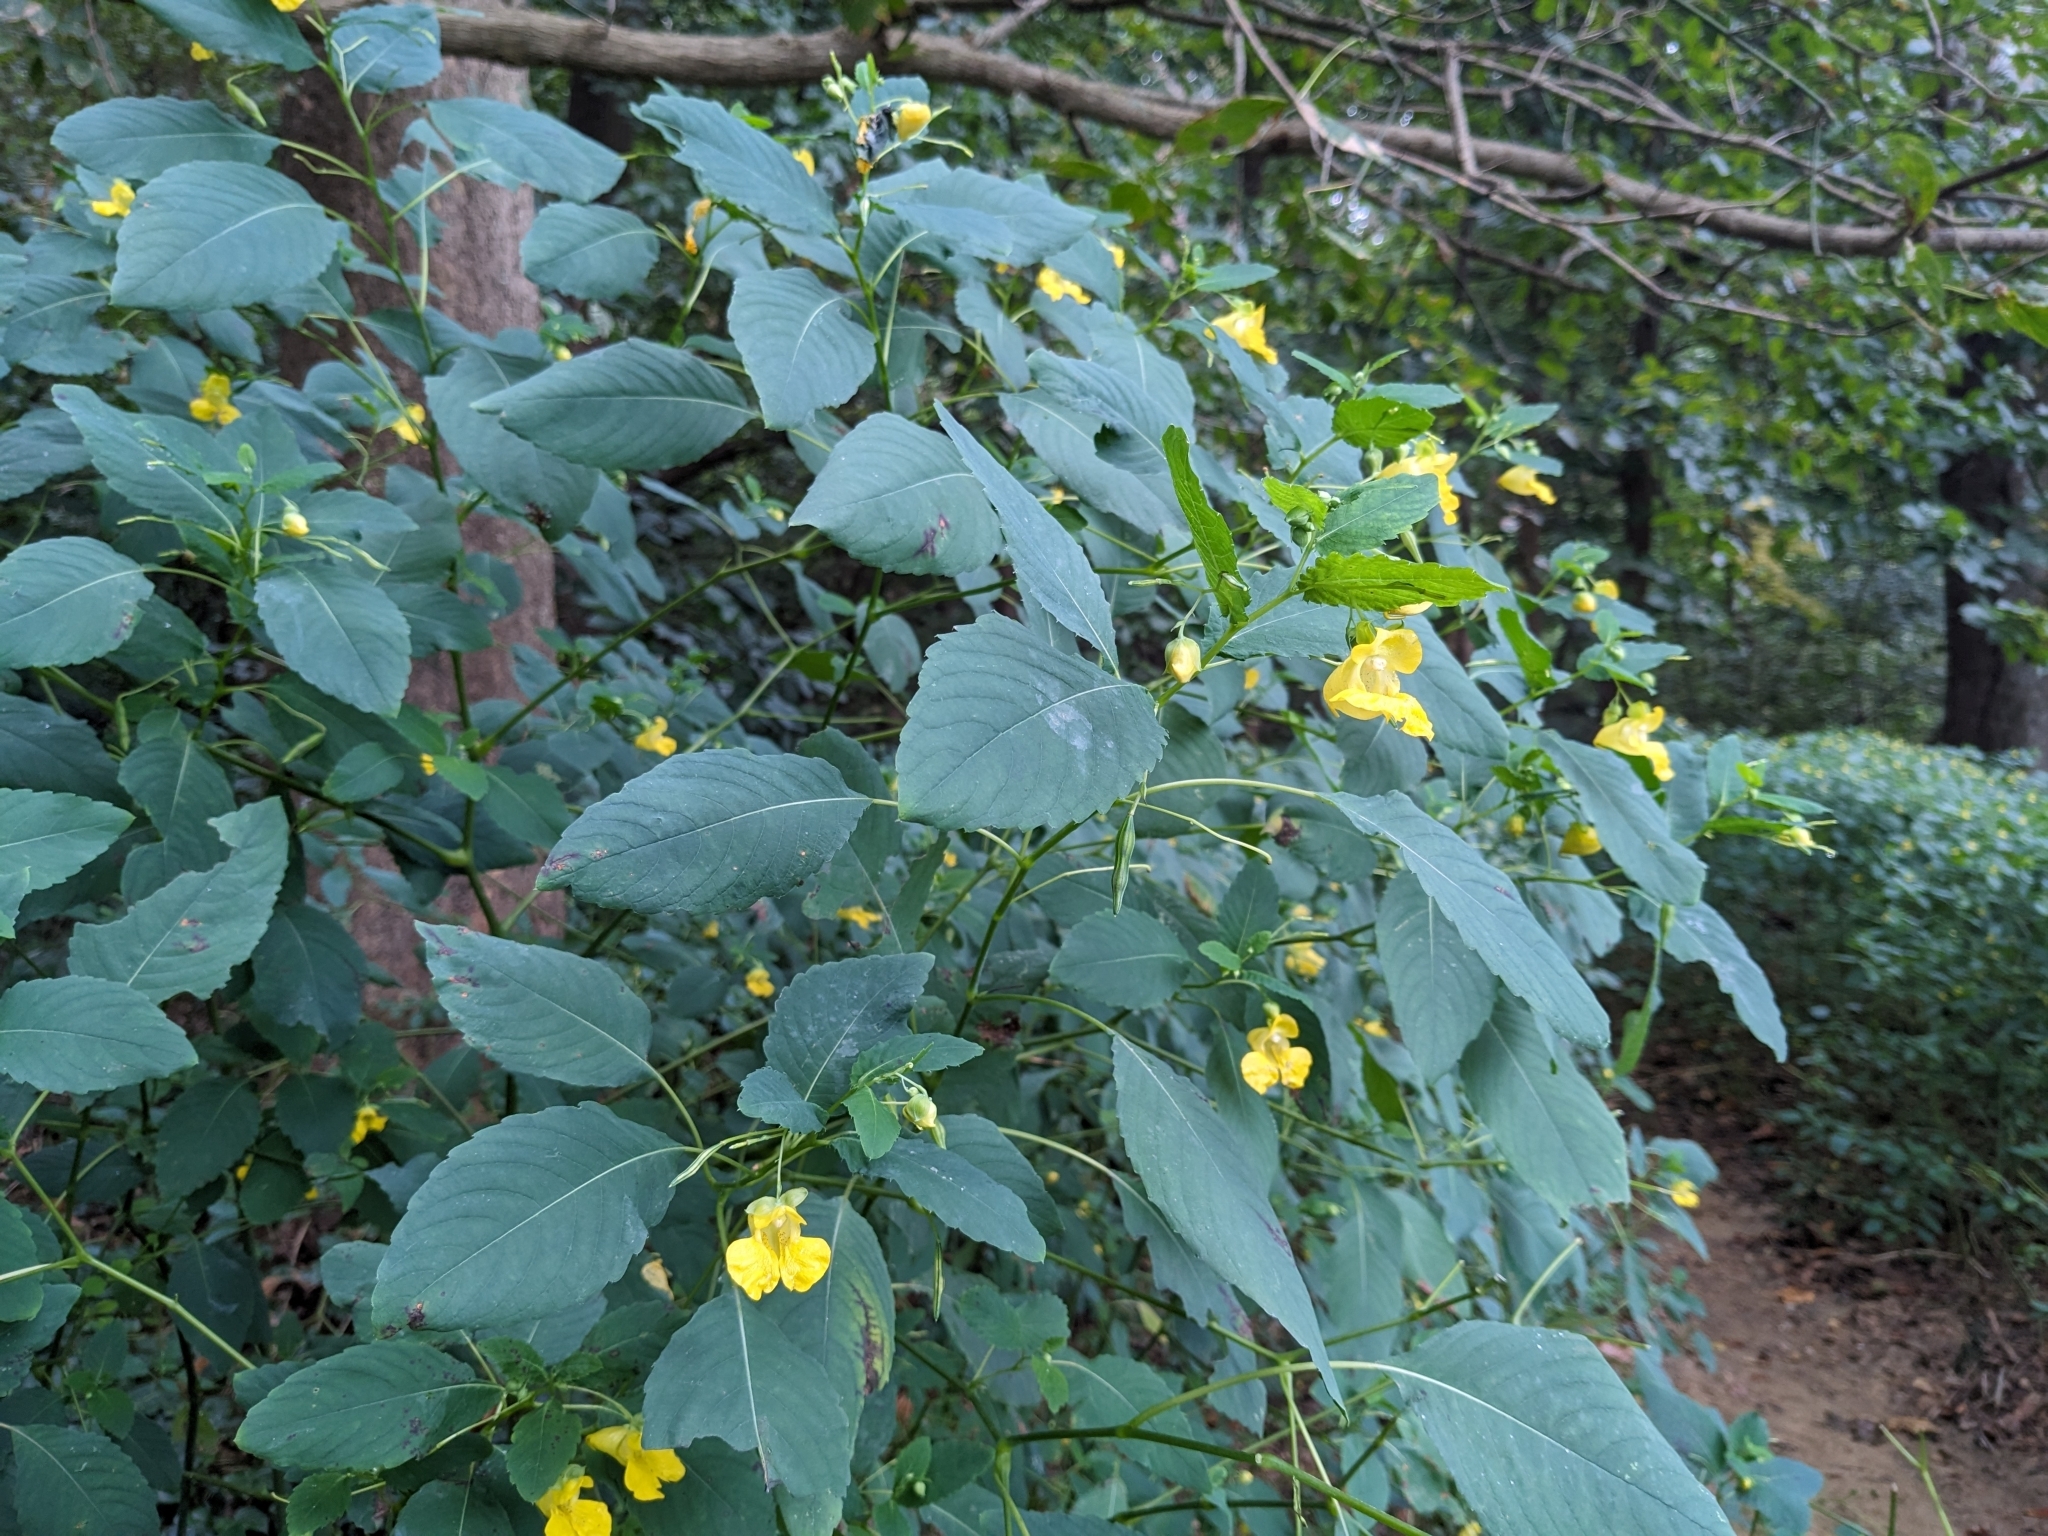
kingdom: Plantae
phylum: Tracheophyta
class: Magnoliopsida
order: Ericales
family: Balsaminaceae
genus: Impatiens
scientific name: Impatiens pallida
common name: Pale snapweed
